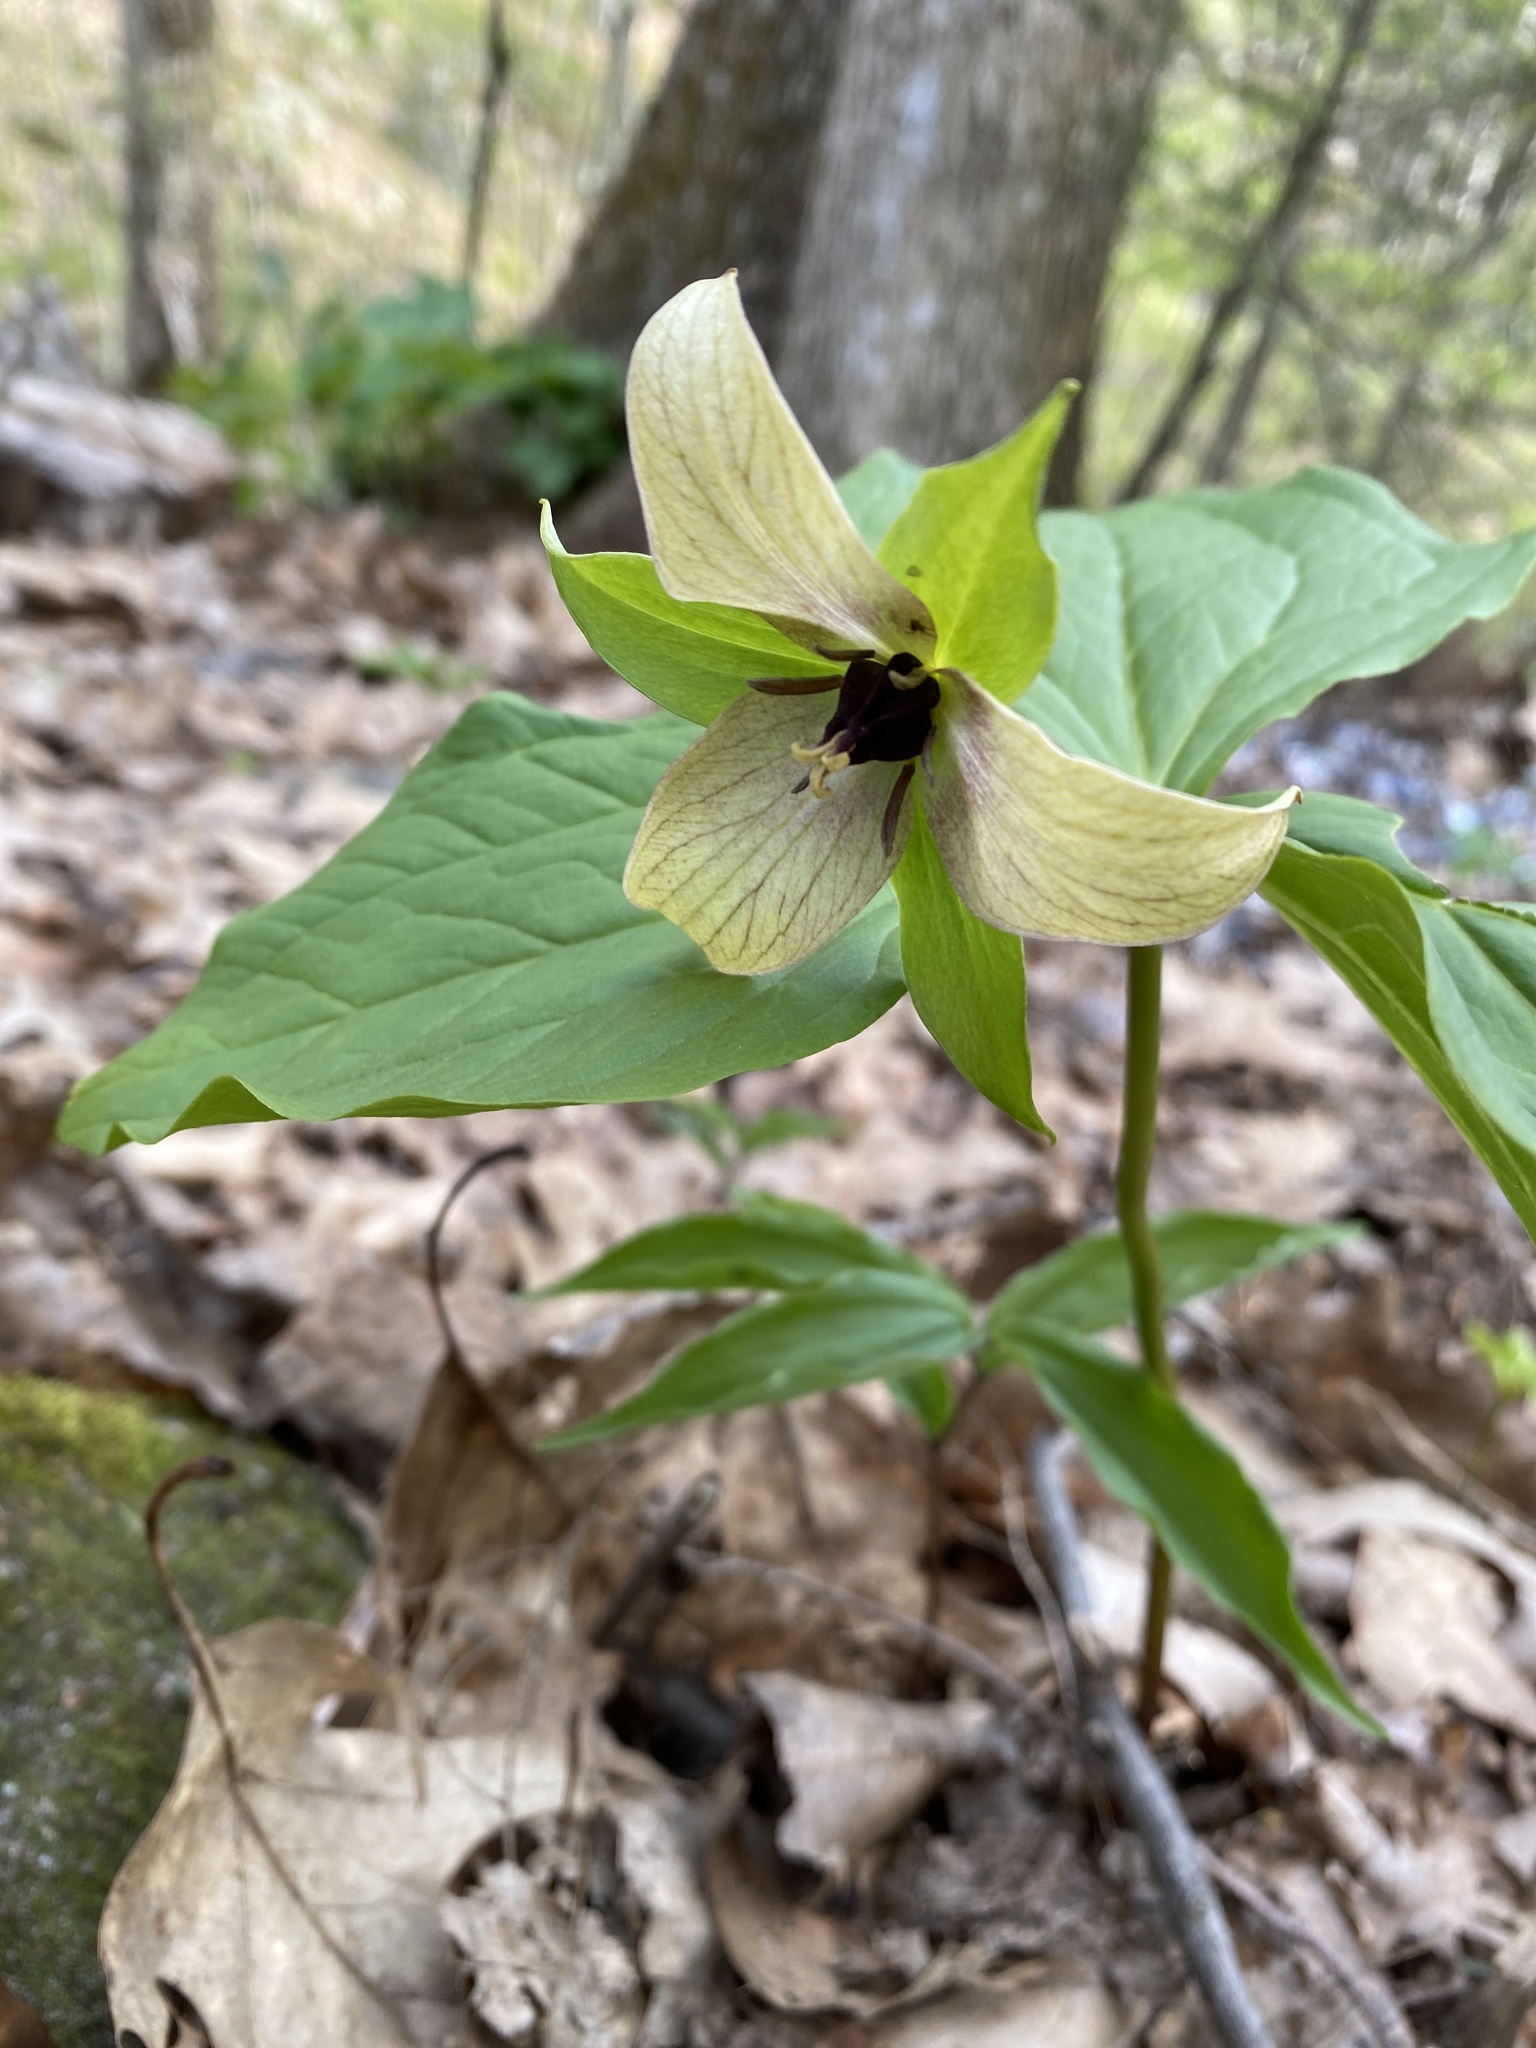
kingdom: Plantae
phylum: Tracheophyta
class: Liliopsida
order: Liliales
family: Melanthiaceae
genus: Trillium
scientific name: Trillium erectum
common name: Purple trillium
